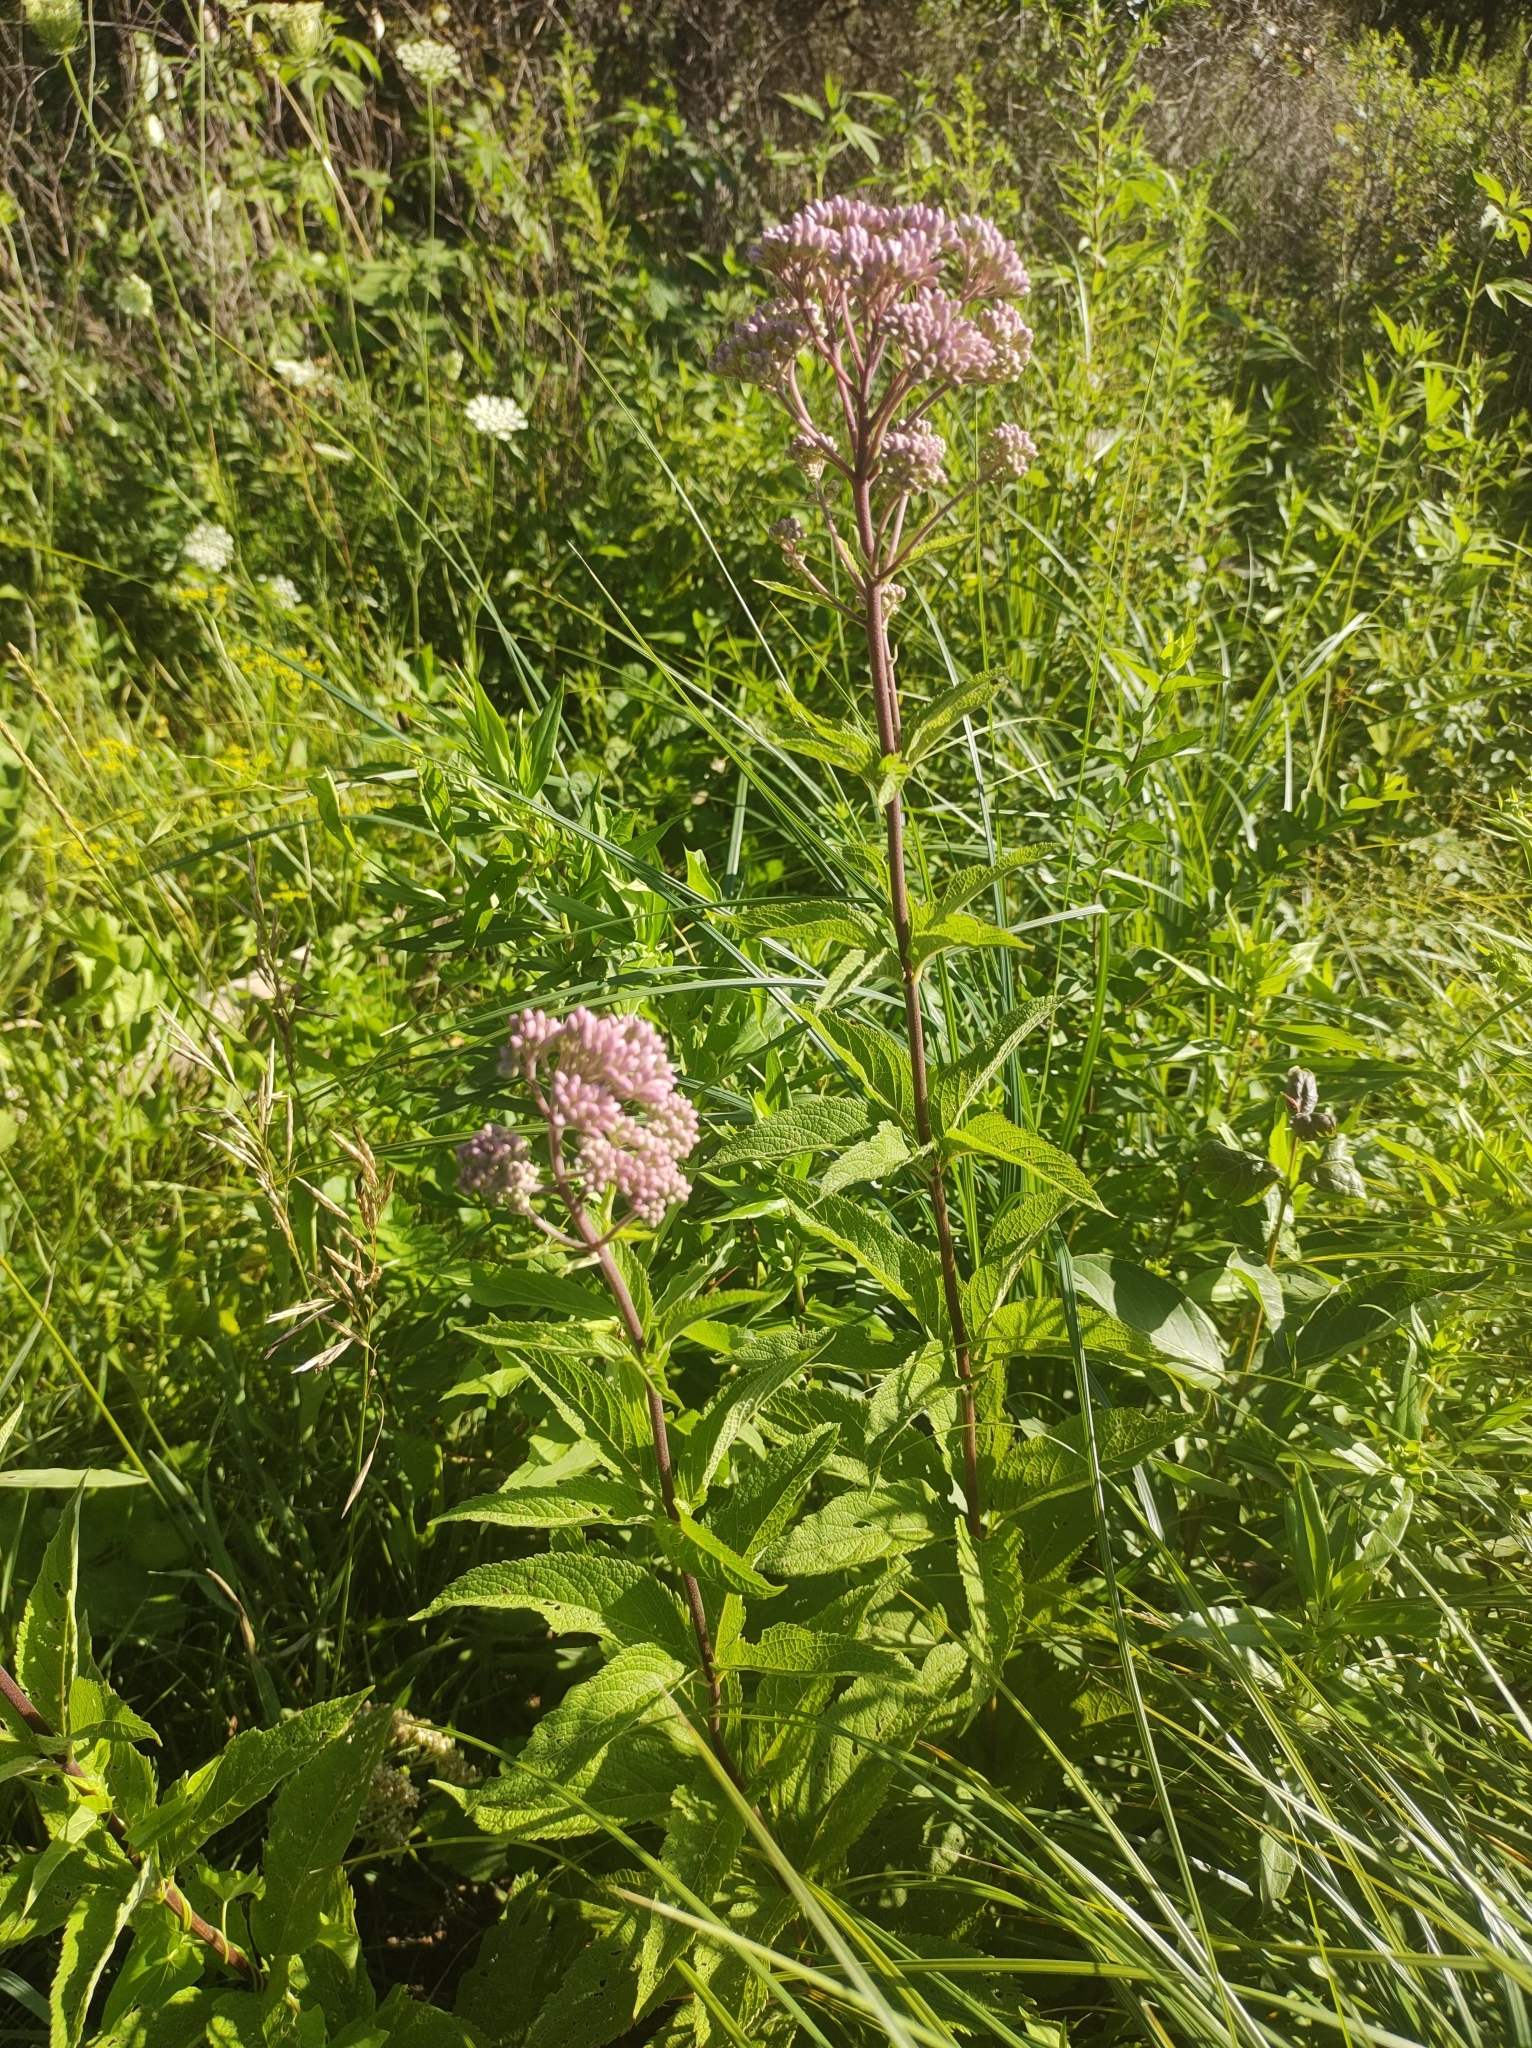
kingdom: Plantae
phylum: Tracheophyta
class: Magnoliopsida
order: Asterales
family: Asteraceae
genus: Eutrochium
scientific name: Eutrochium maculatum
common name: Spotted joe pye weed
